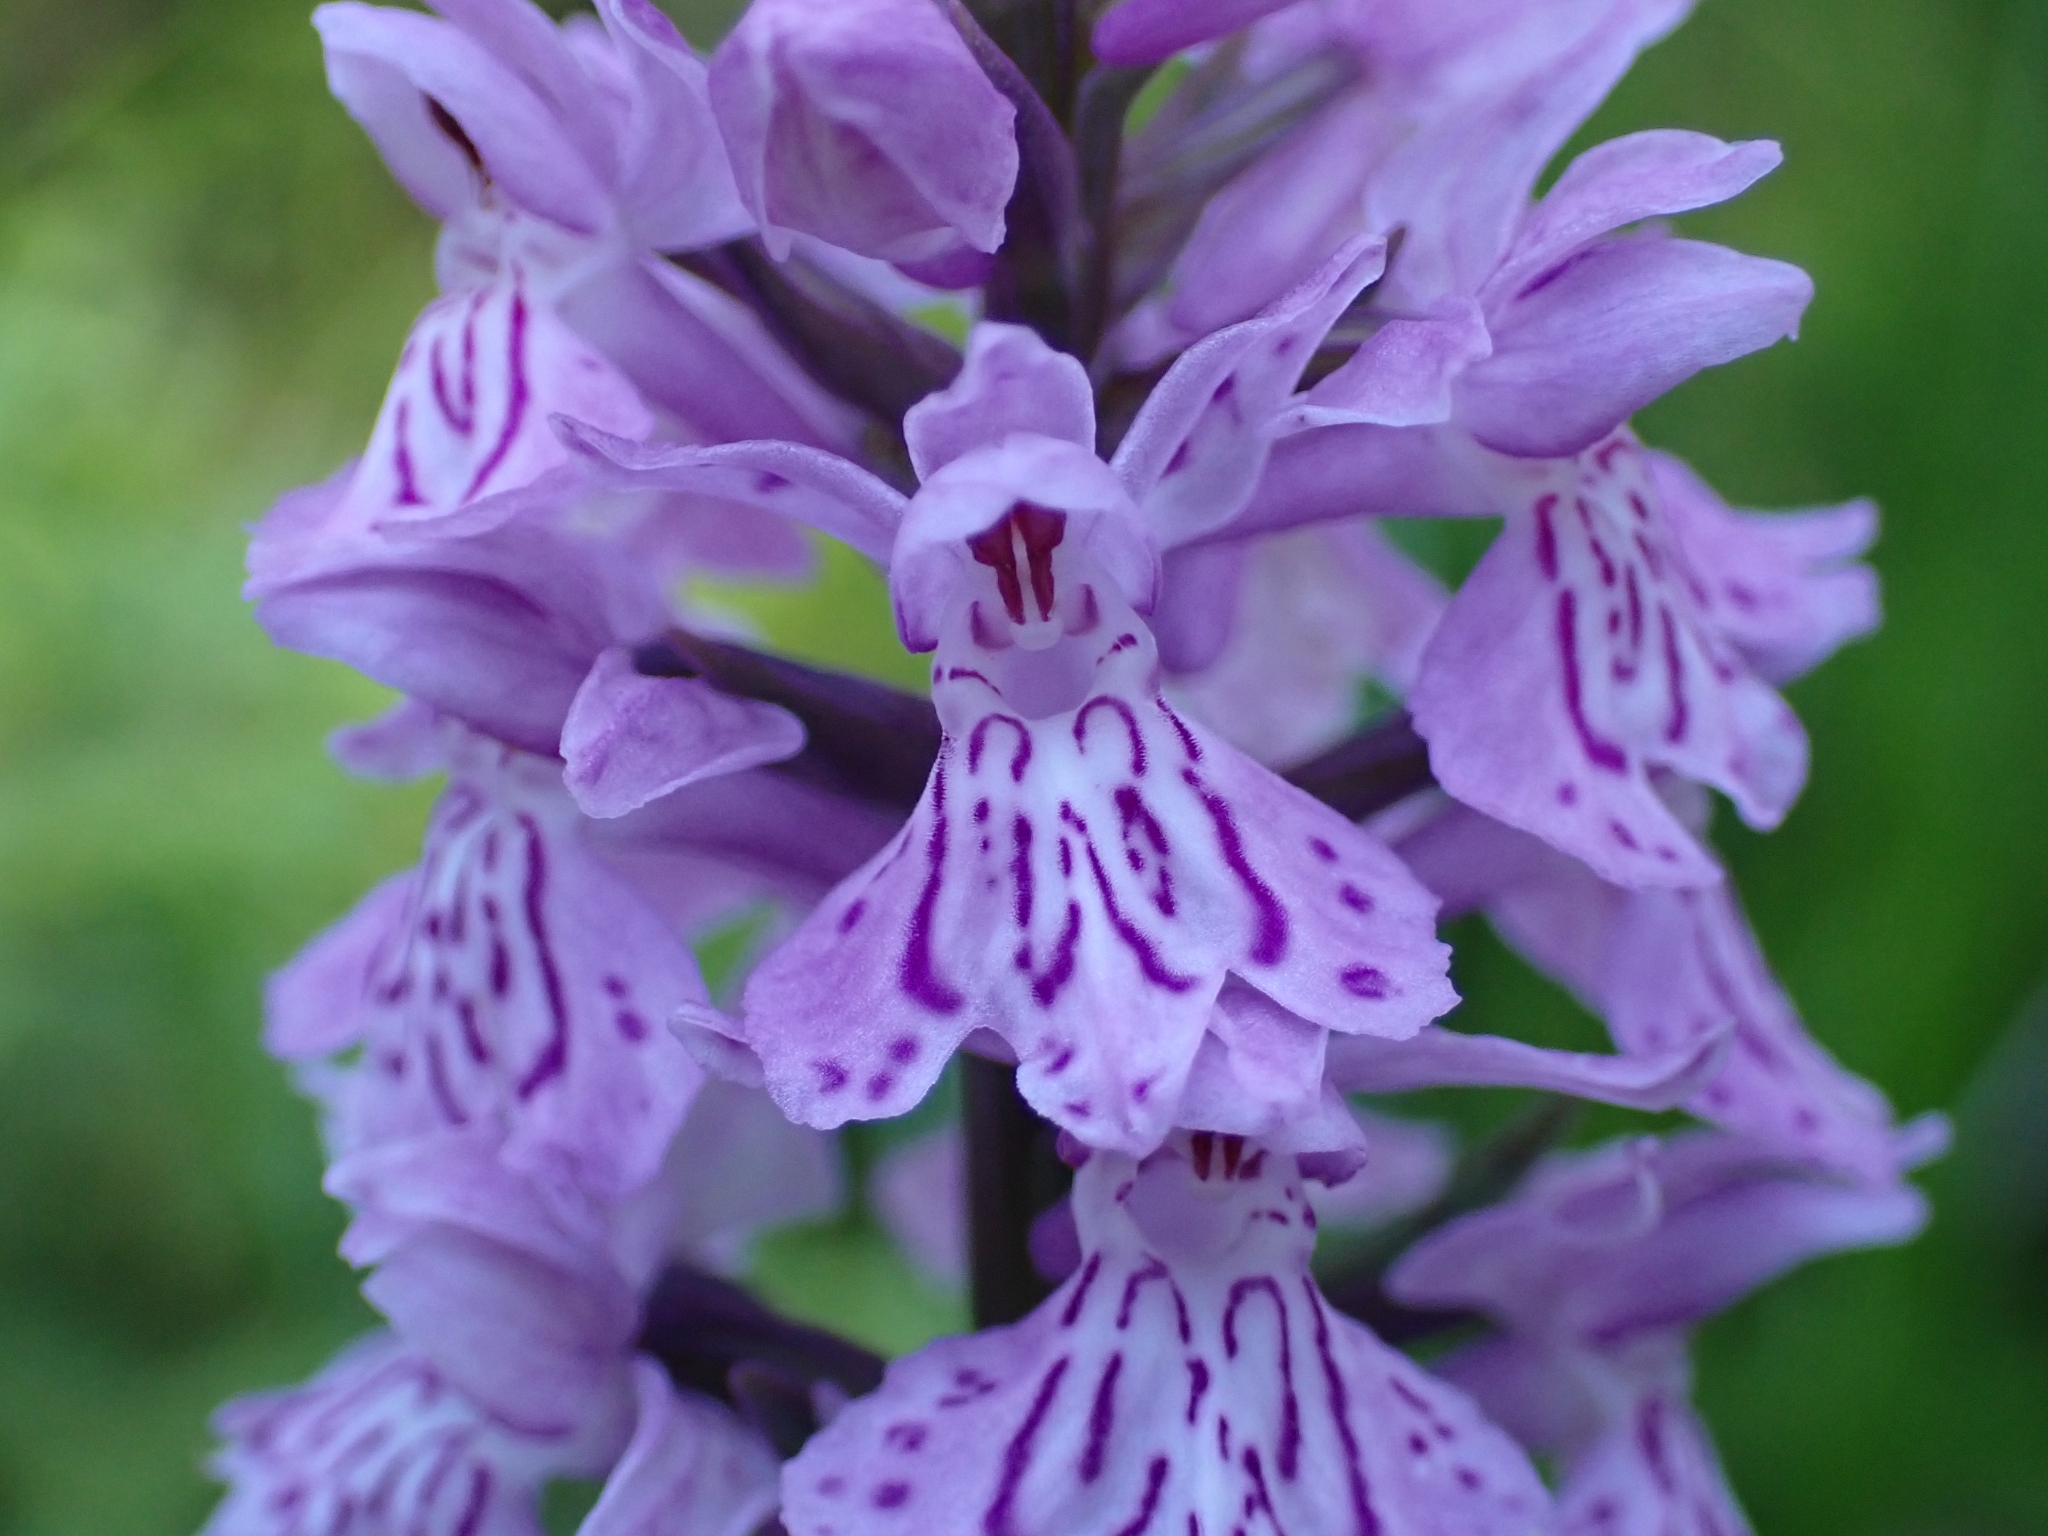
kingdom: Plantae
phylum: Tracheophyta
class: Liliopsida
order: Asparagales
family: Orchidaceae
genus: Dactylorhiza
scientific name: Dactylorhiza maculata
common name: Heath spotted-orchid
